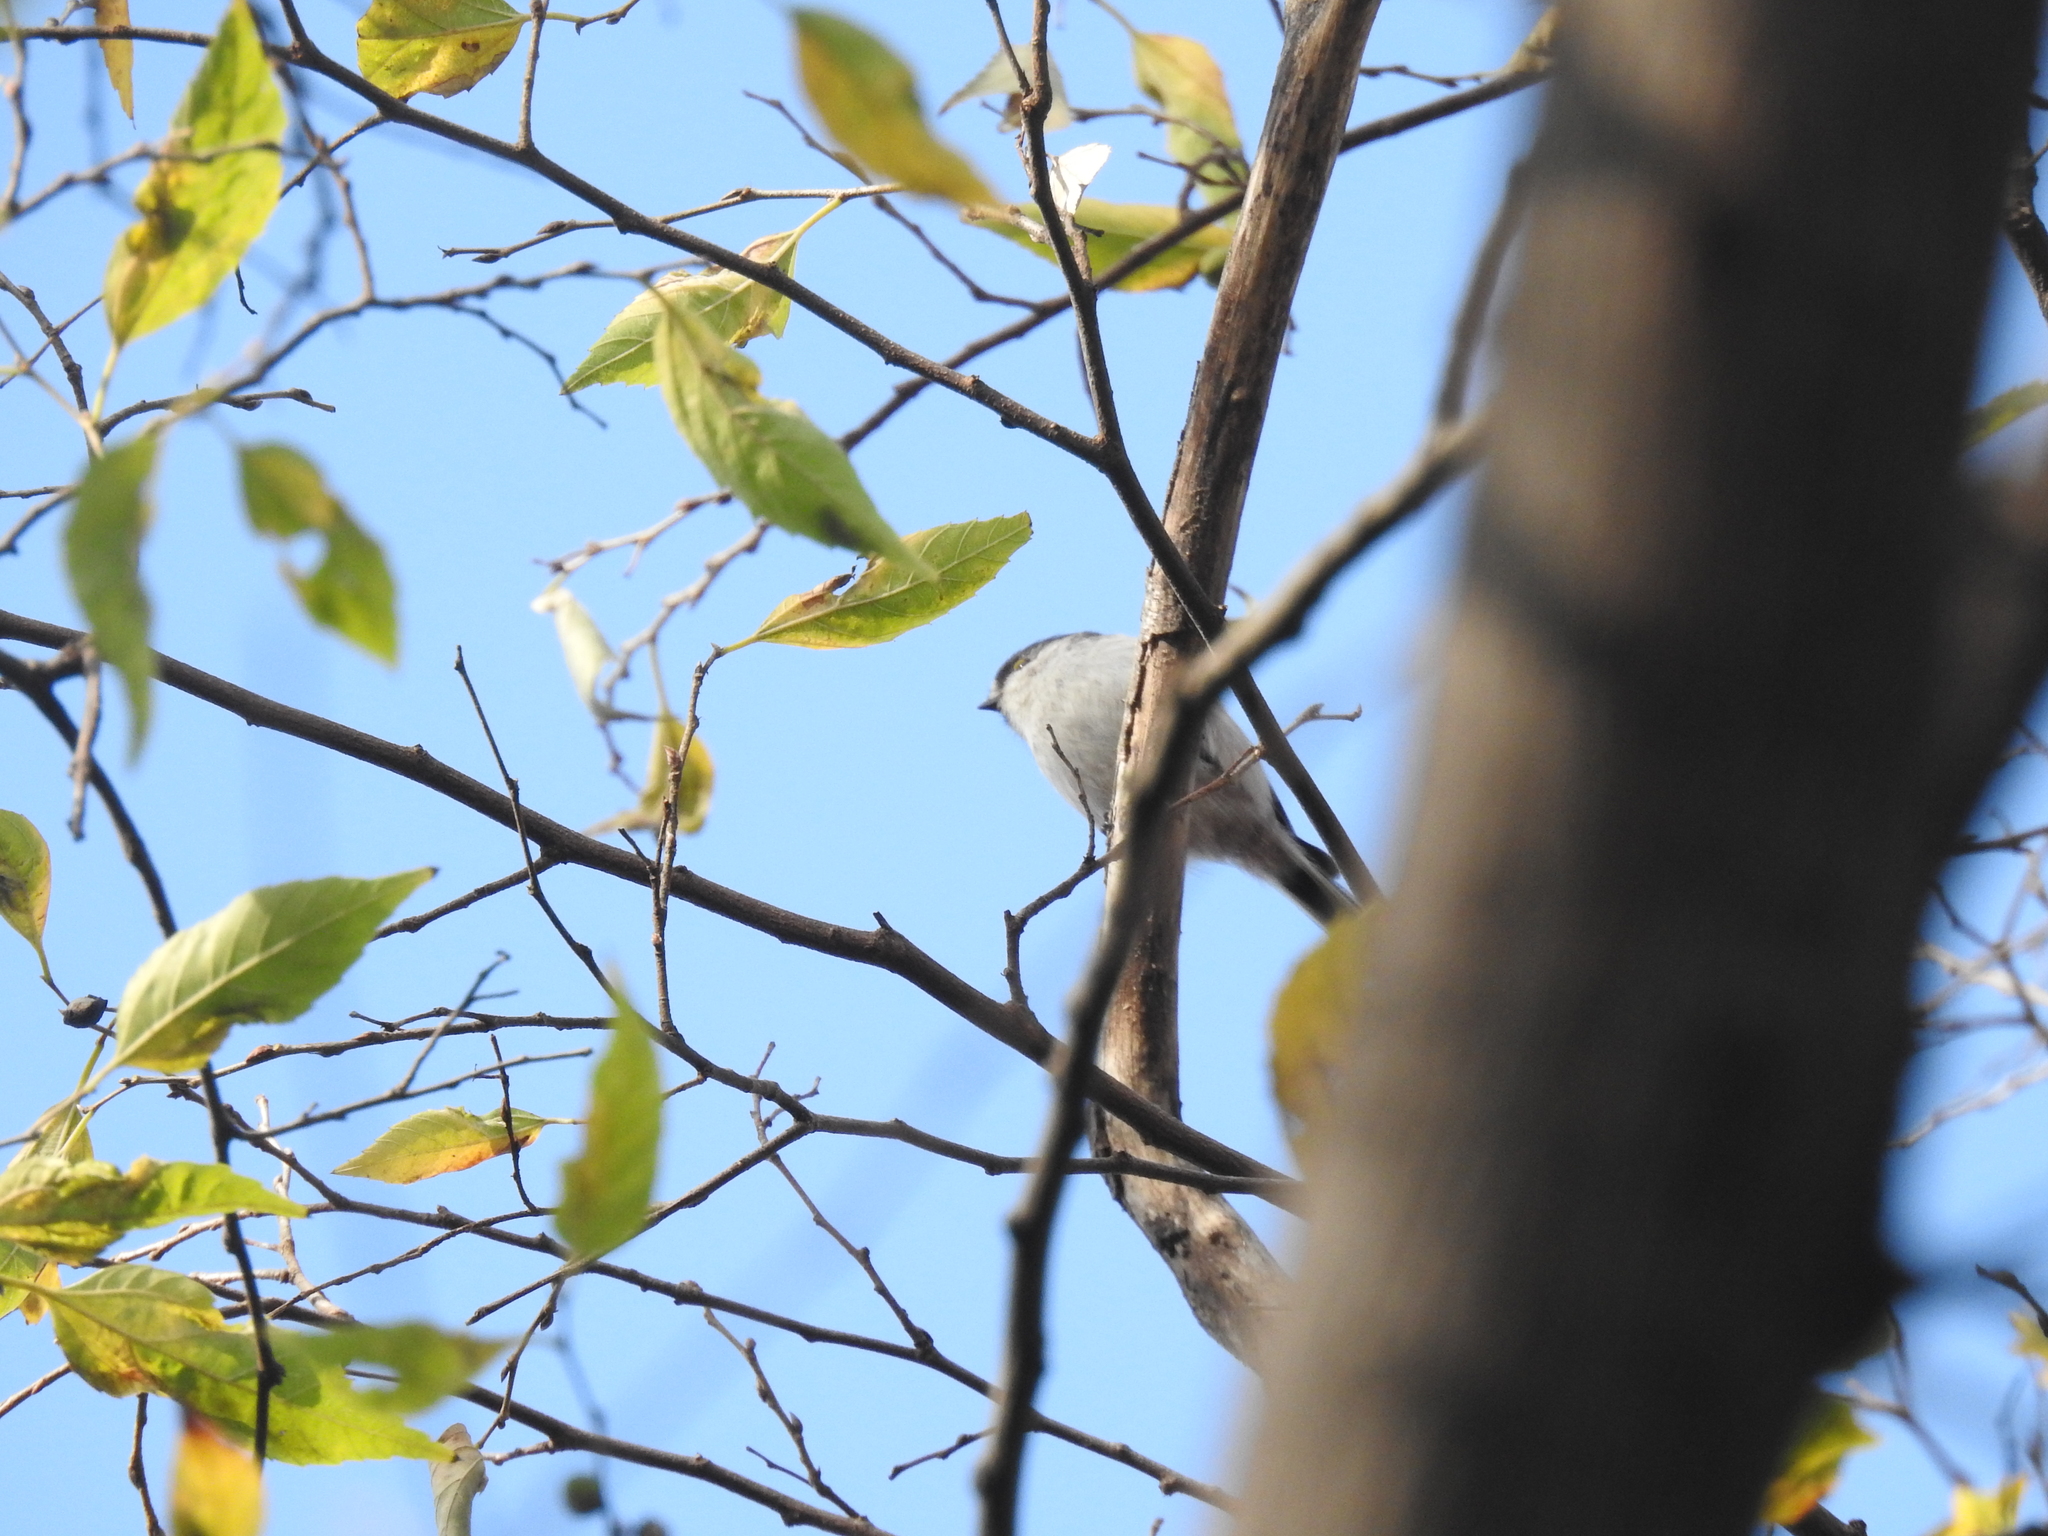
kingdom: Animalia
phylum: Chordata
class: Aves
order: Passeriformes
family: Aegithalidae
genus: Aegithalos
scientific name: Aegithalos caudatus
